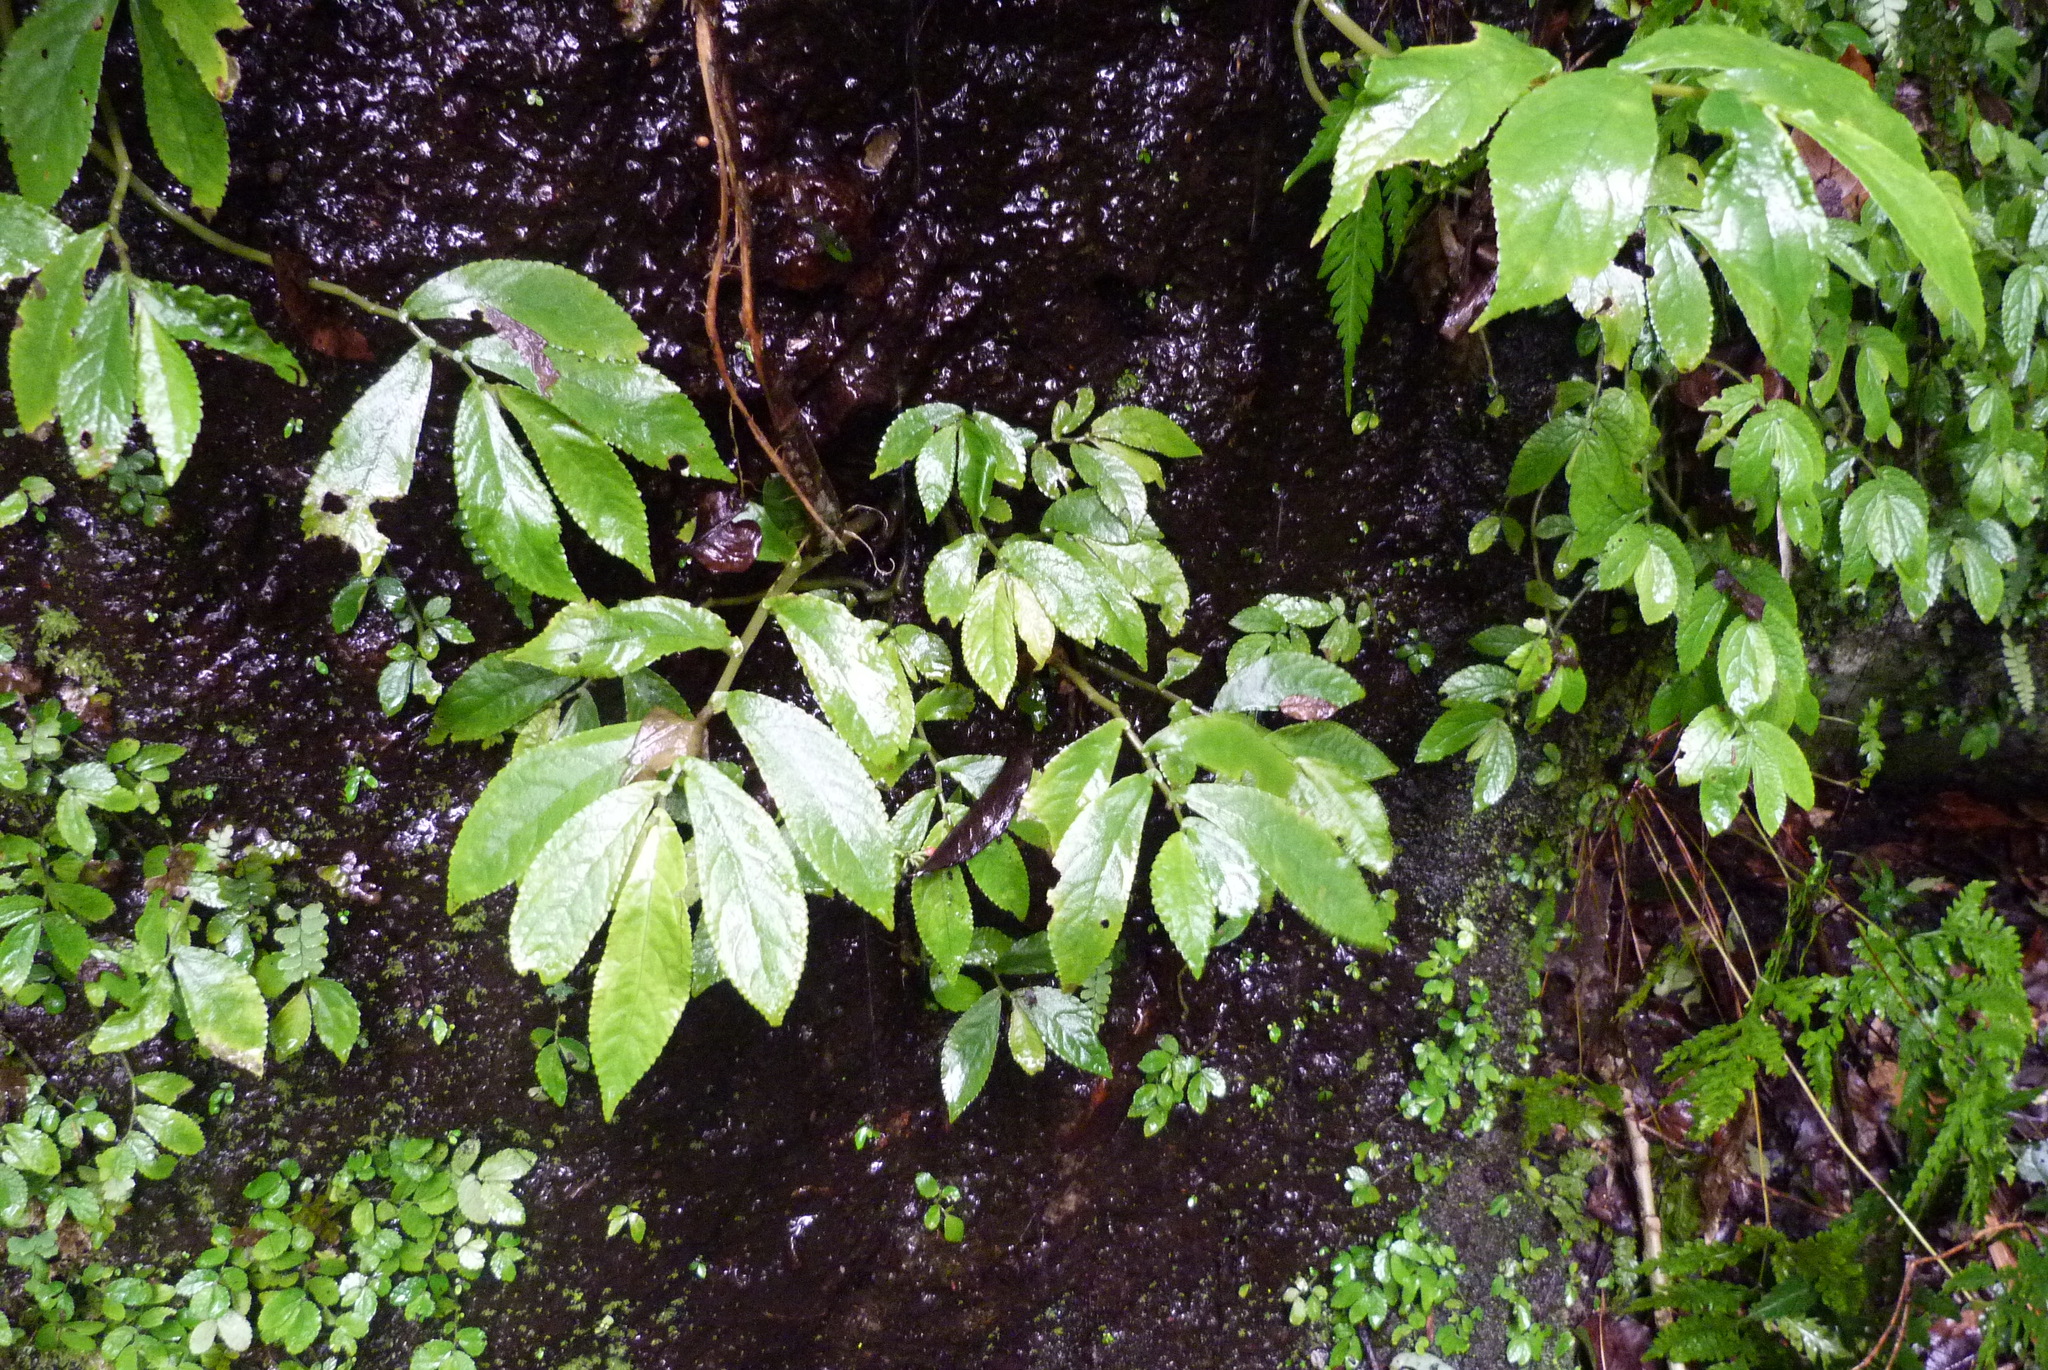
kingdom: Plantae
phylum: Tracheophyta
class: Magnoliopsida
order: Rosales
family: Urticaceae
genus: Elatostema
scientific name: Elatostema reticulatum
